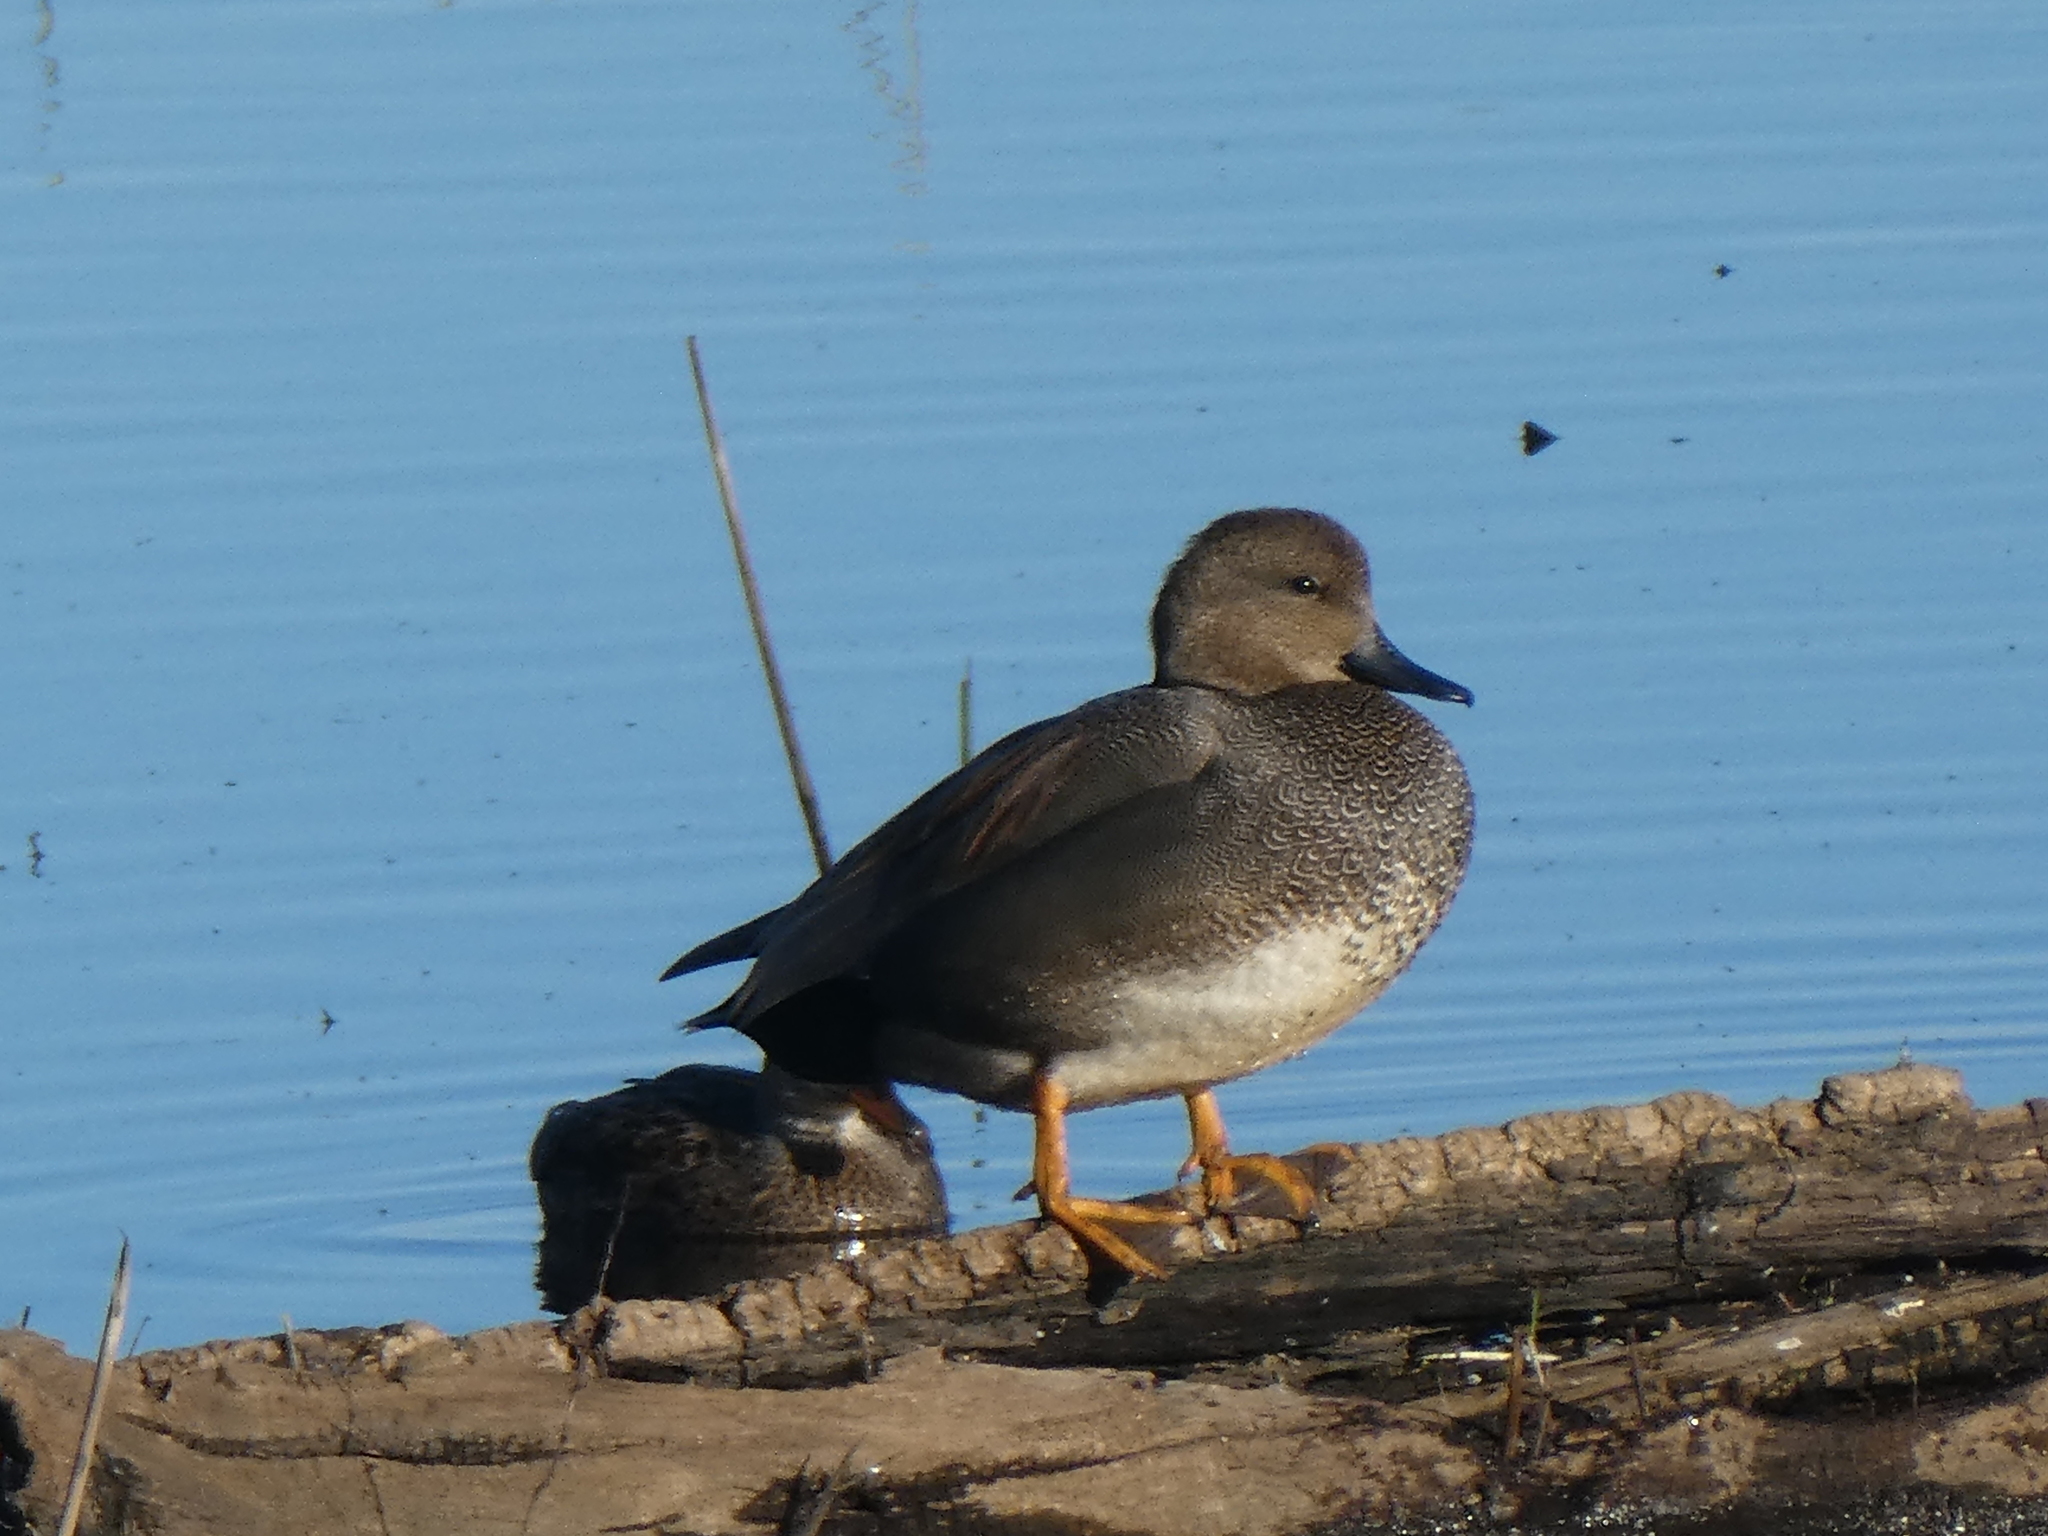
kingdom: Animalia
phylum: Chordata
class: Aves
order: Anseriformes
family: Anatidae
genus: Mareca
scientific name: Mareca strepera
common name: Gadwall
